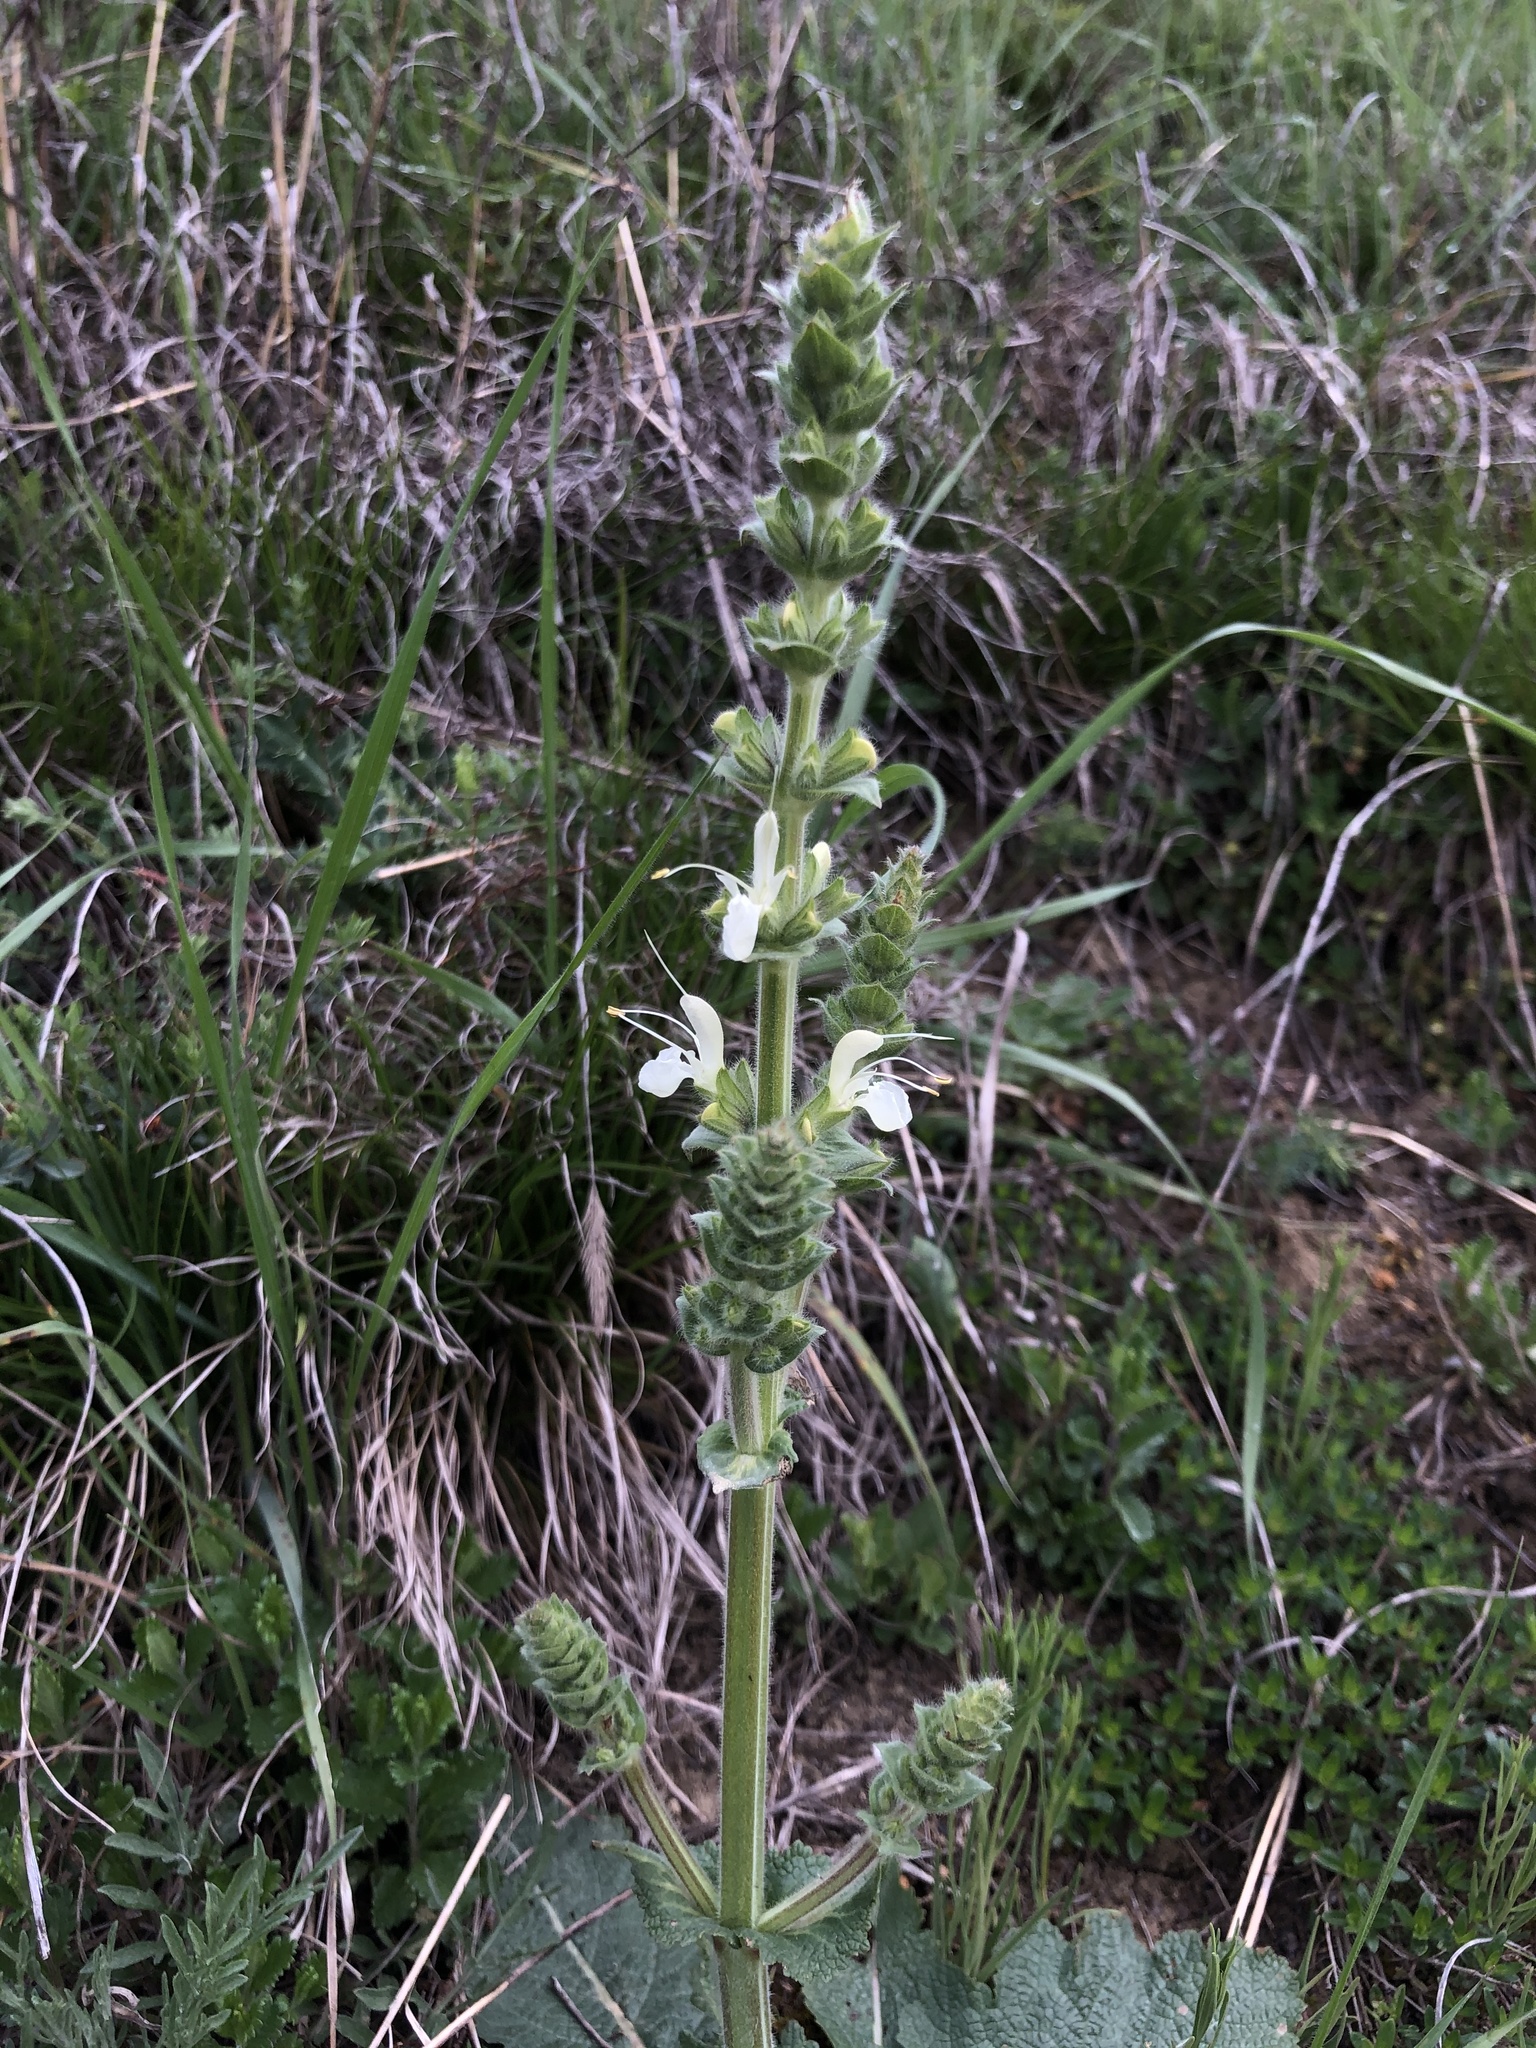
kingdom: Plantae
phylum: Tracheophyta
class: Magnoliopsida
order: Lamiales
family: Lamiaceae
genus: Salvia
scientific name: Salvia austriaca
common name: Austrian sage
